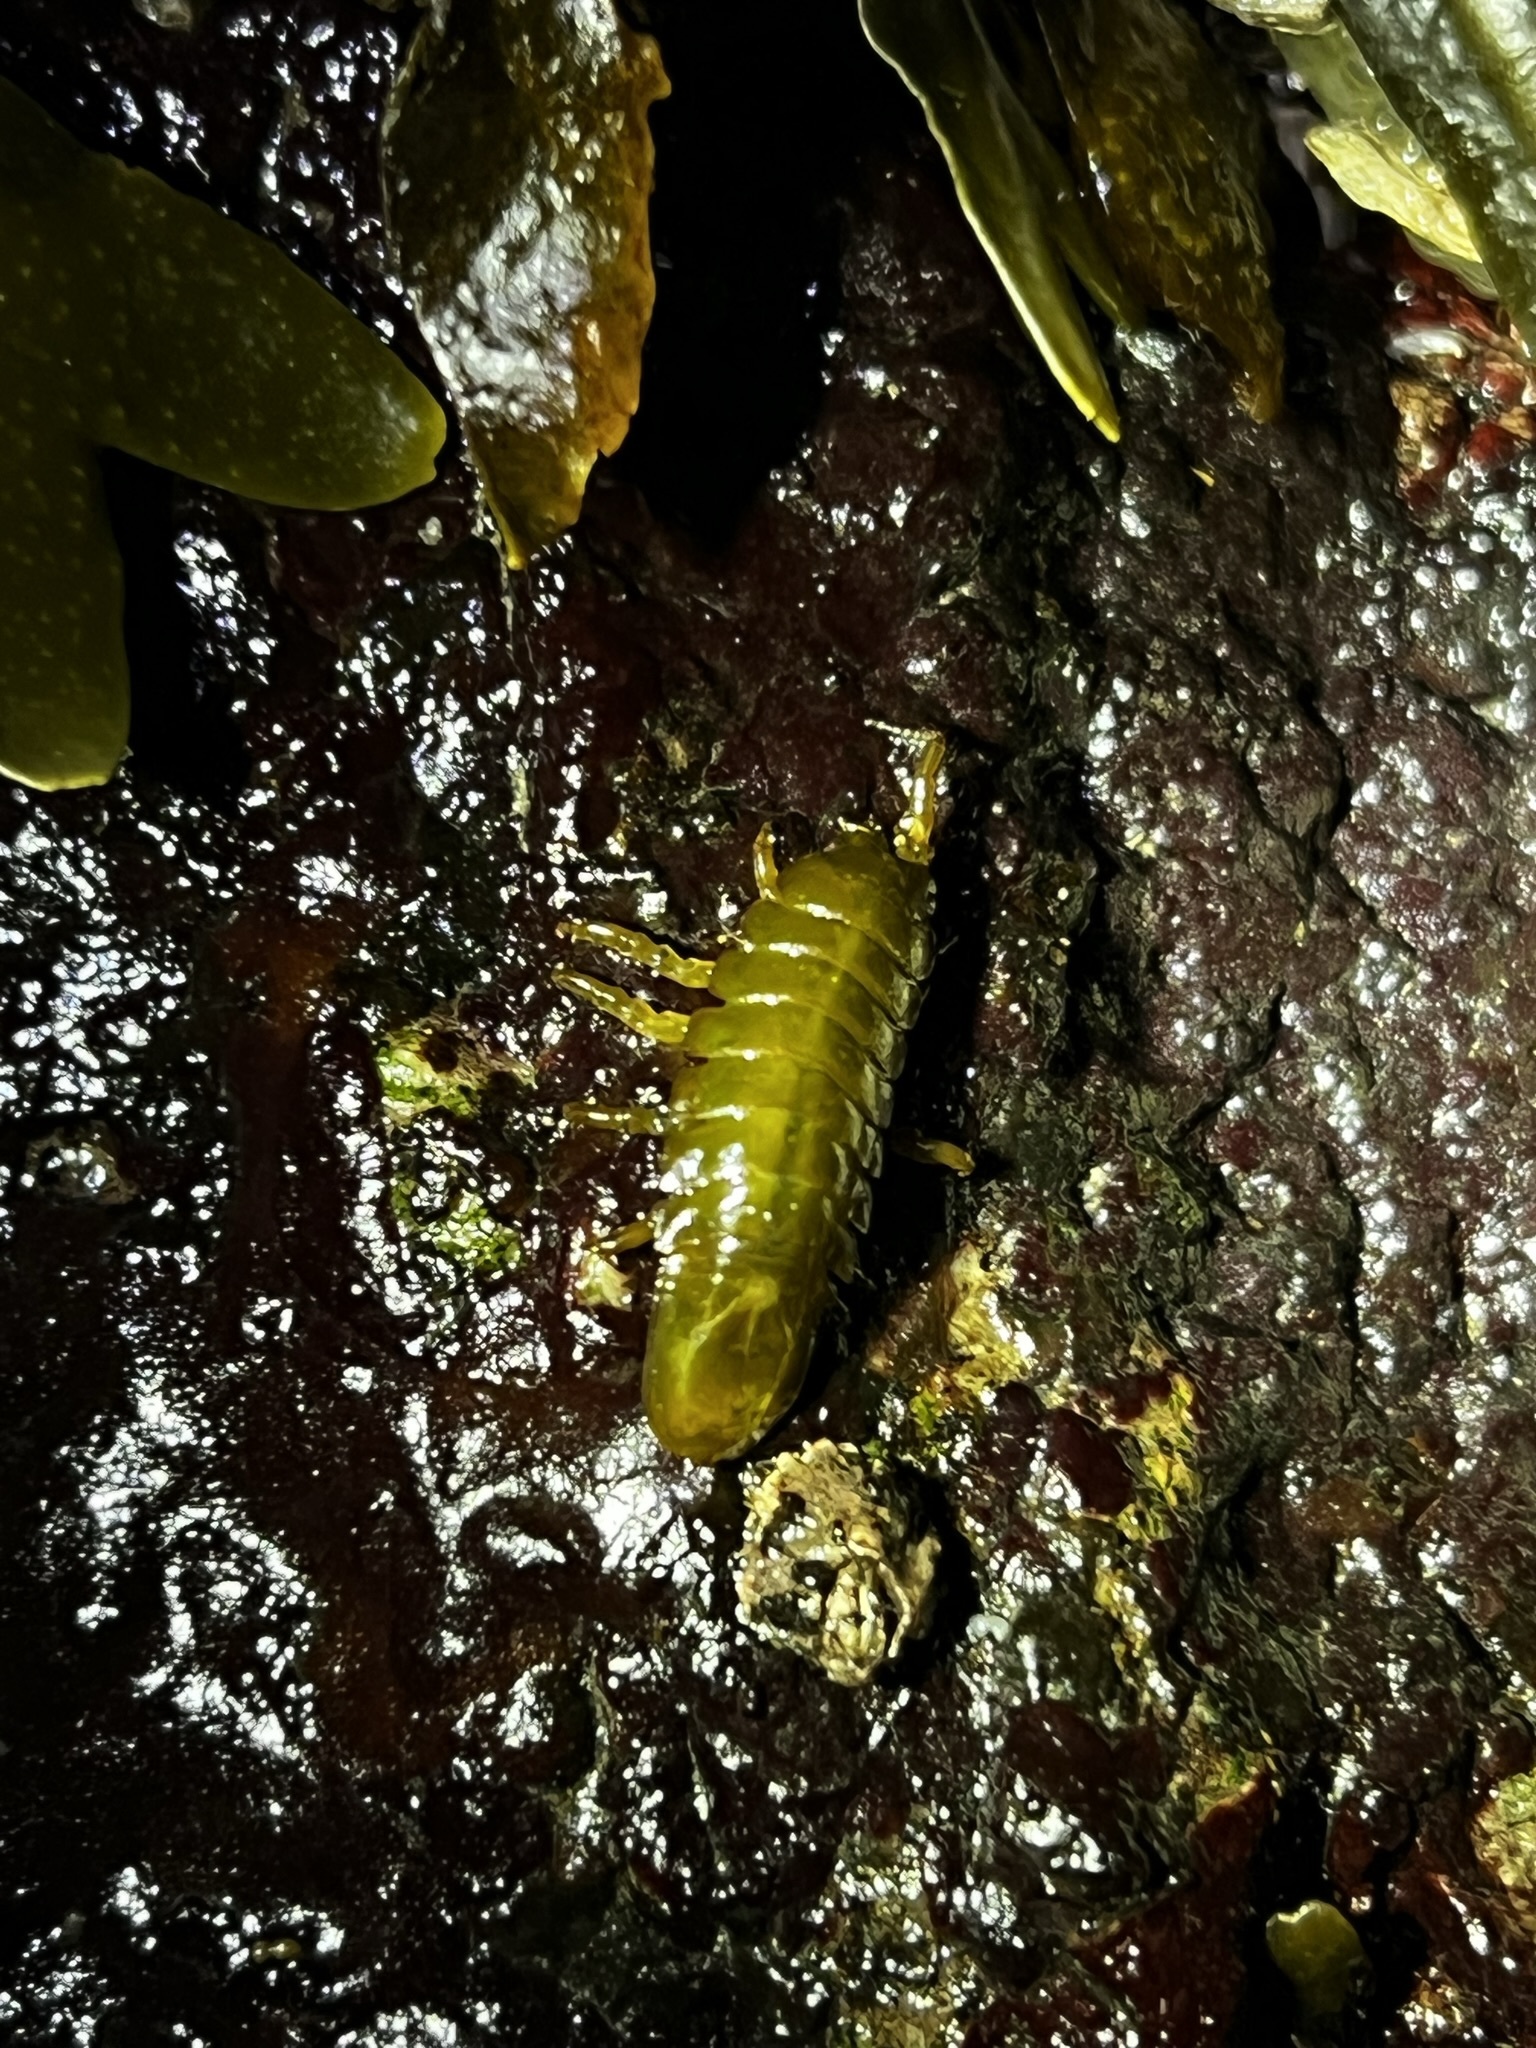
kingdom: Animalia
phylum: Arthropoda
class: Malacostraca
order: Isopoda
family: Idoteidae
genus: Pentidotea
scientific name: Pentidotea wosnesenskii
